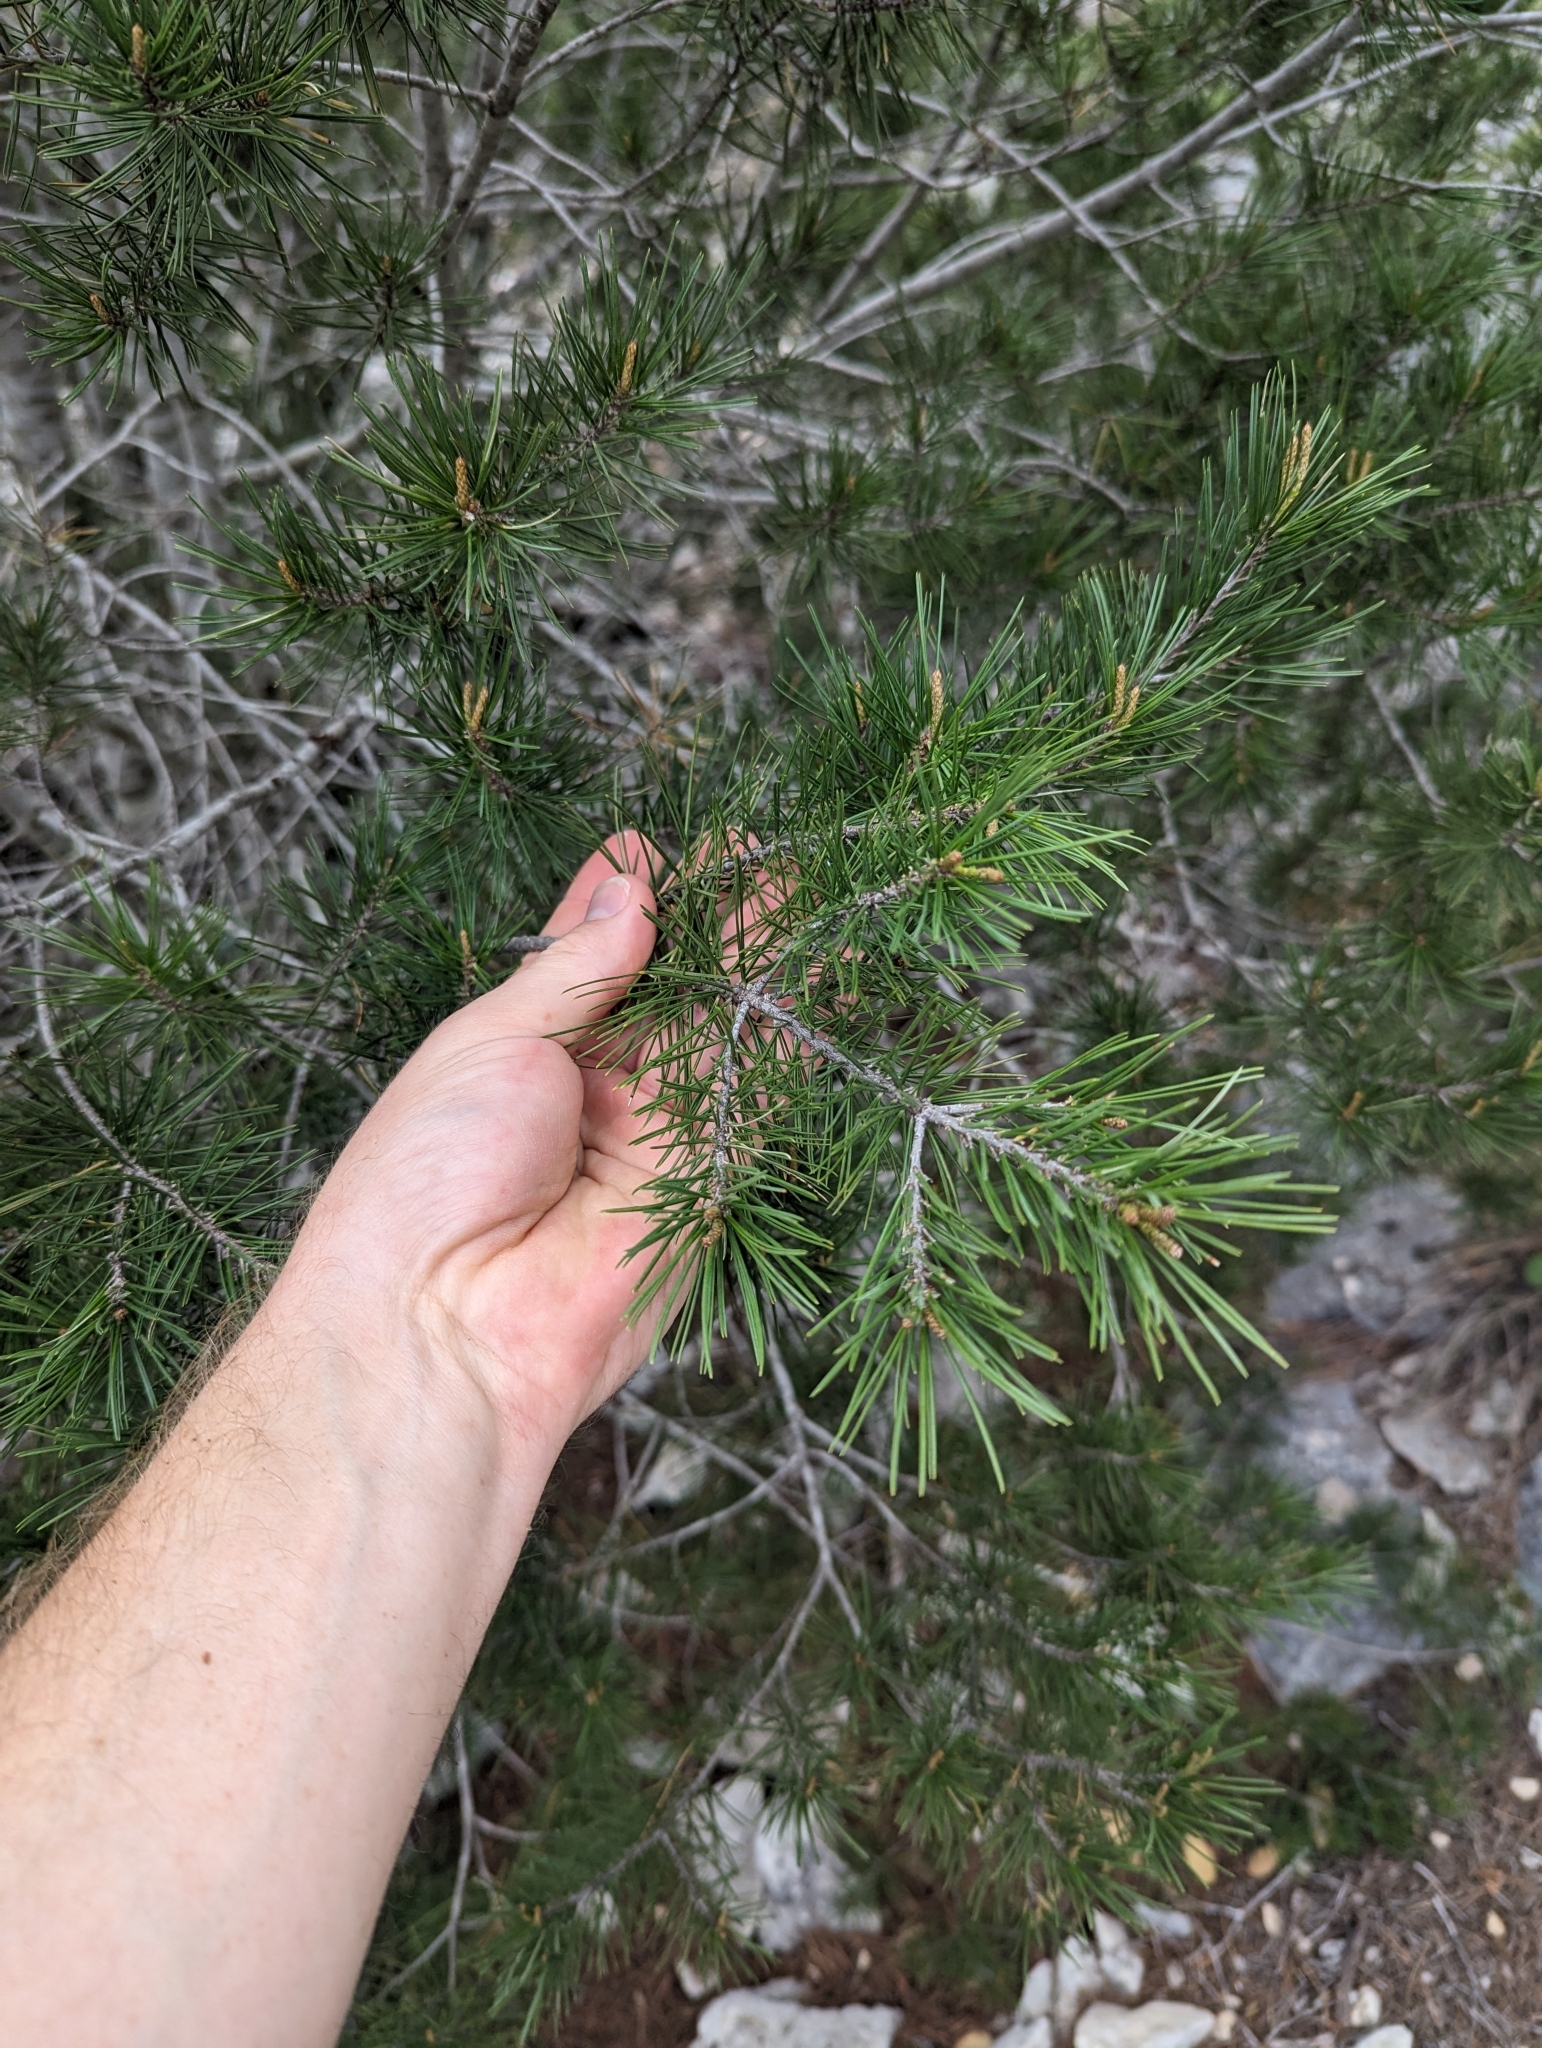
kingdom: Plantae
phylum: Tracheophyta
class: Pinopsida
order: Pinales
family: Pinaceae
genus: Pinus
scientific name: Pinus remota
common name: Nut pine
